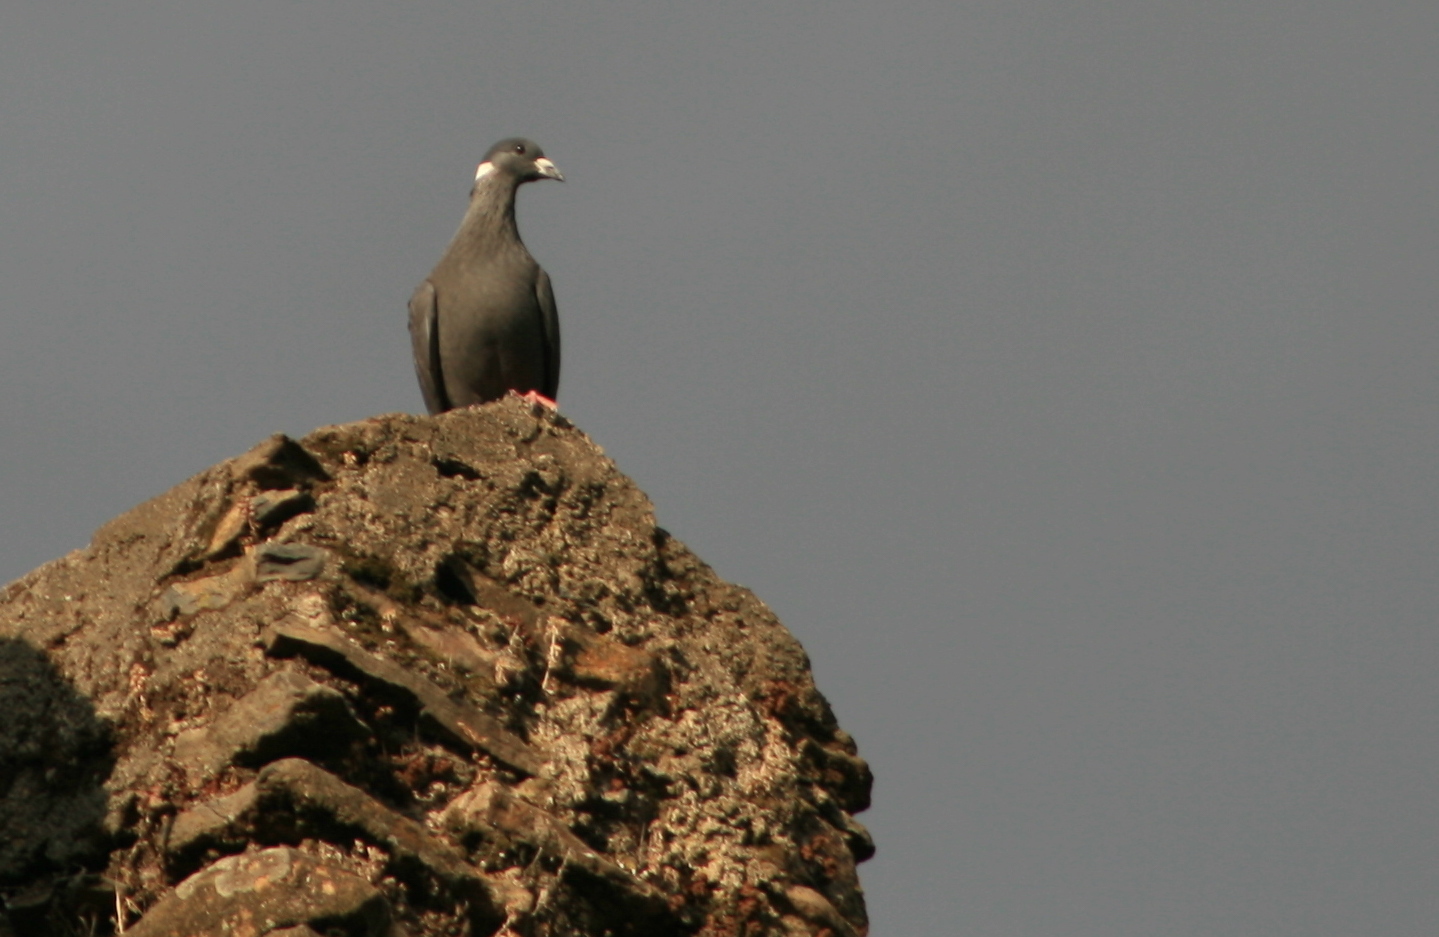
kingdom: Animalia
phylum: Chordata
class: Aves
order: Columbiformes
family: Columbidae
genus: Columba
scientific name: Columba albitorques
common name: White-collared pigeon
